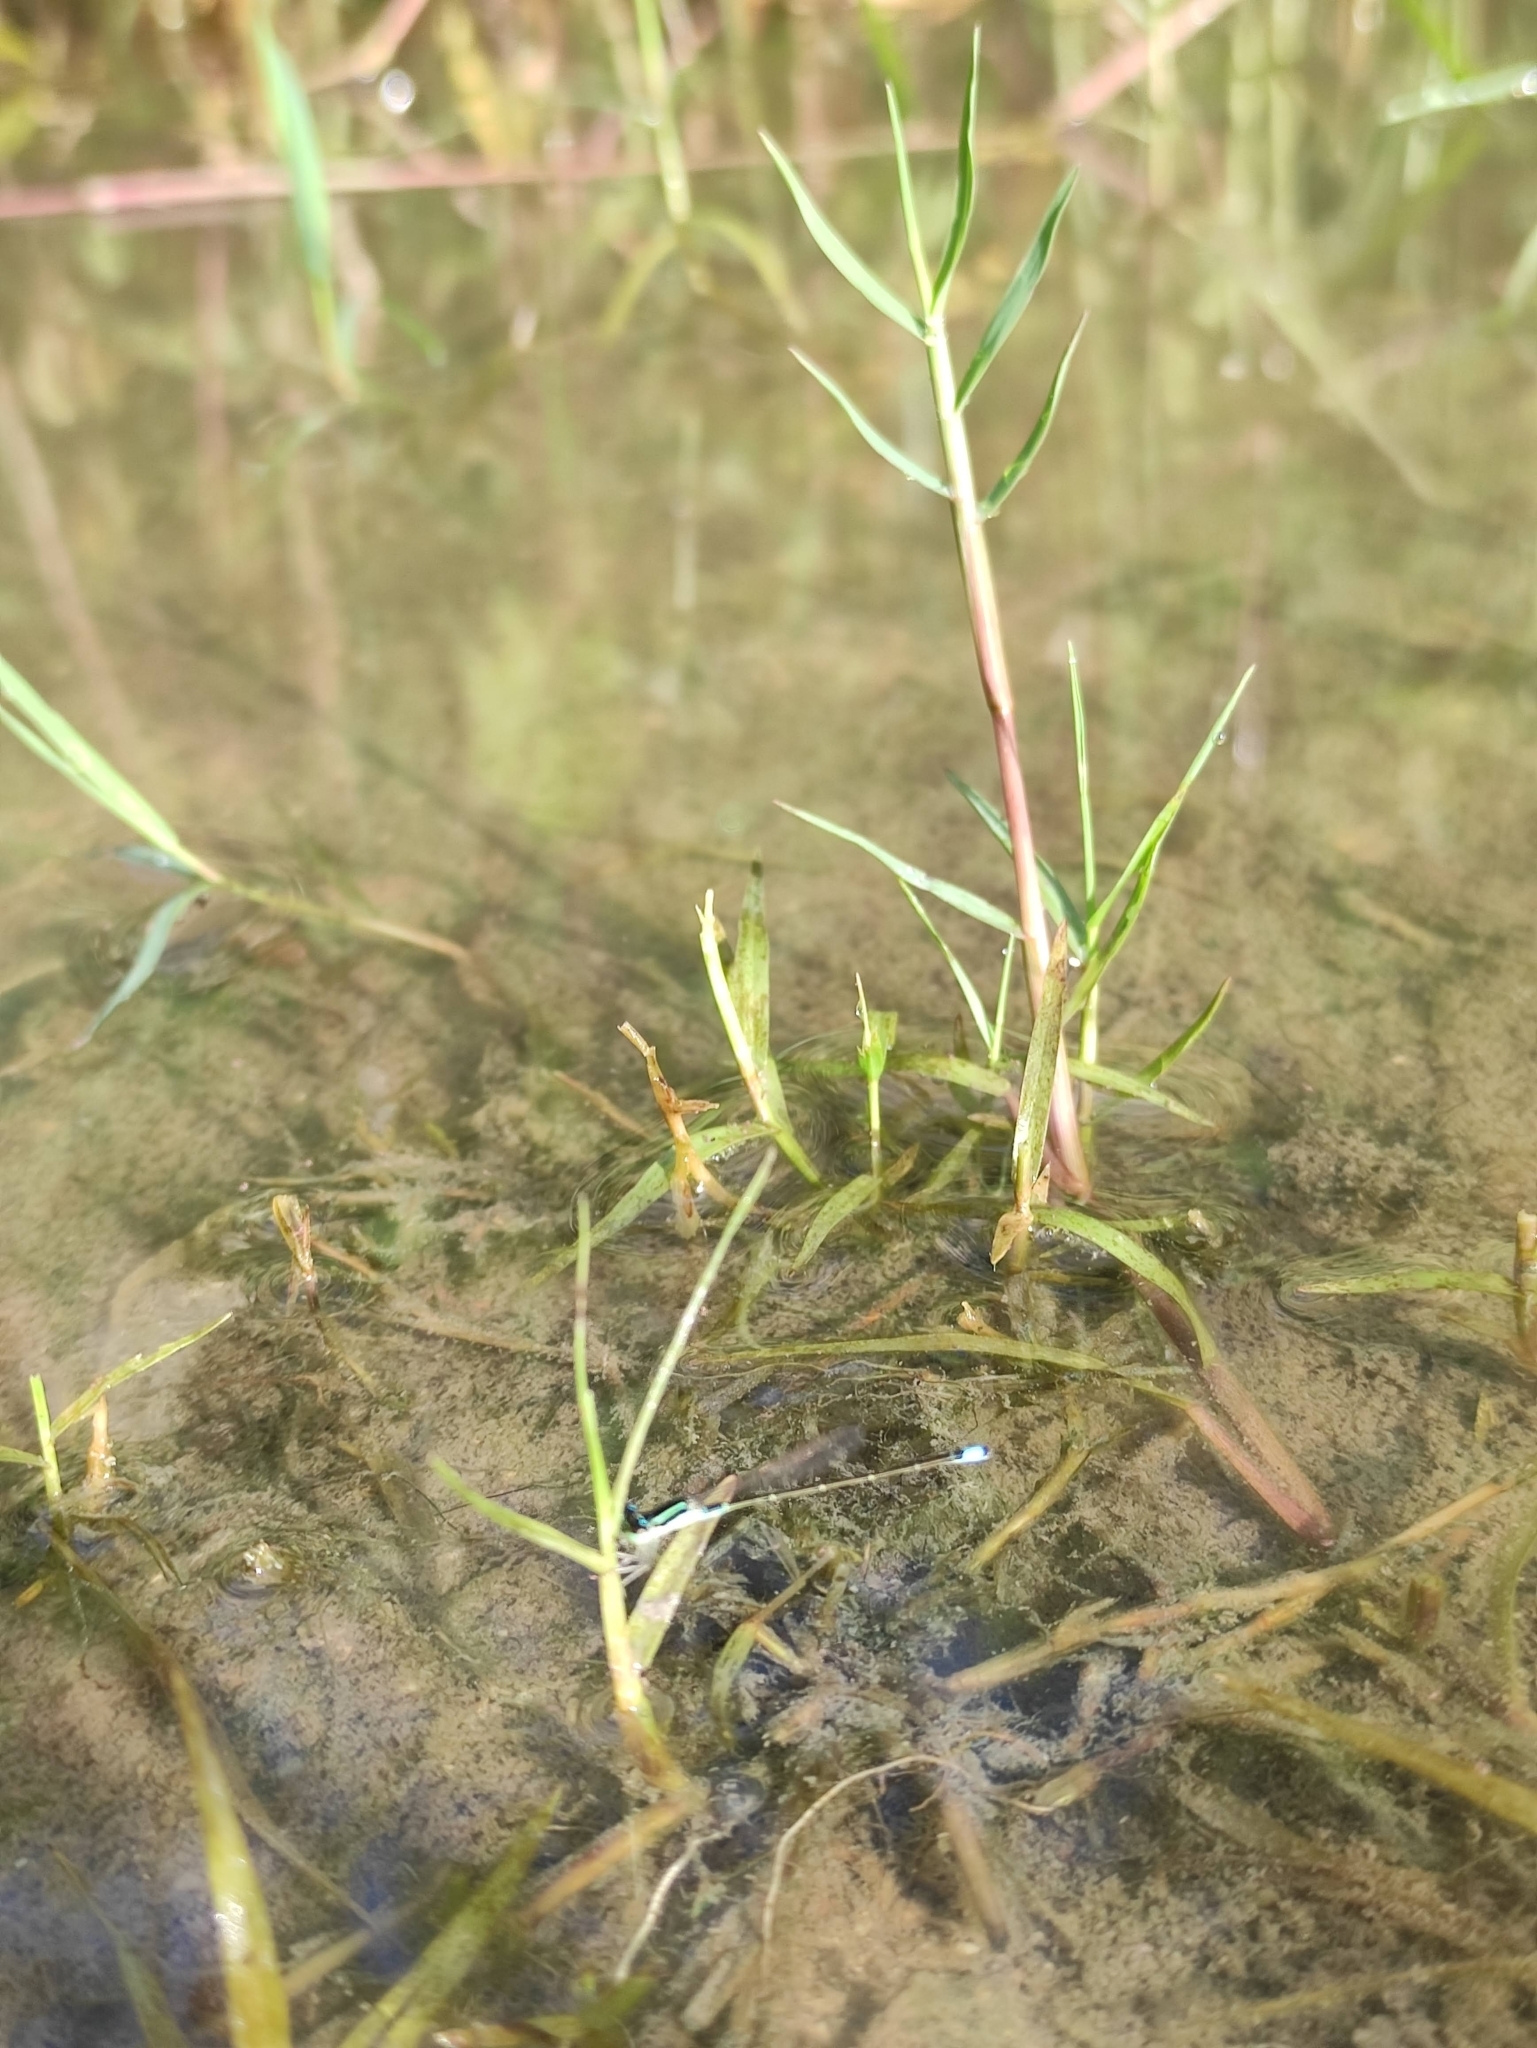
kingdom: Animalia
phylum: Arthropoda
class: Insecta
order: Odonata
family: Coenagrionidae
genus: Ischnura
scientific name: Ischnura capreolus
